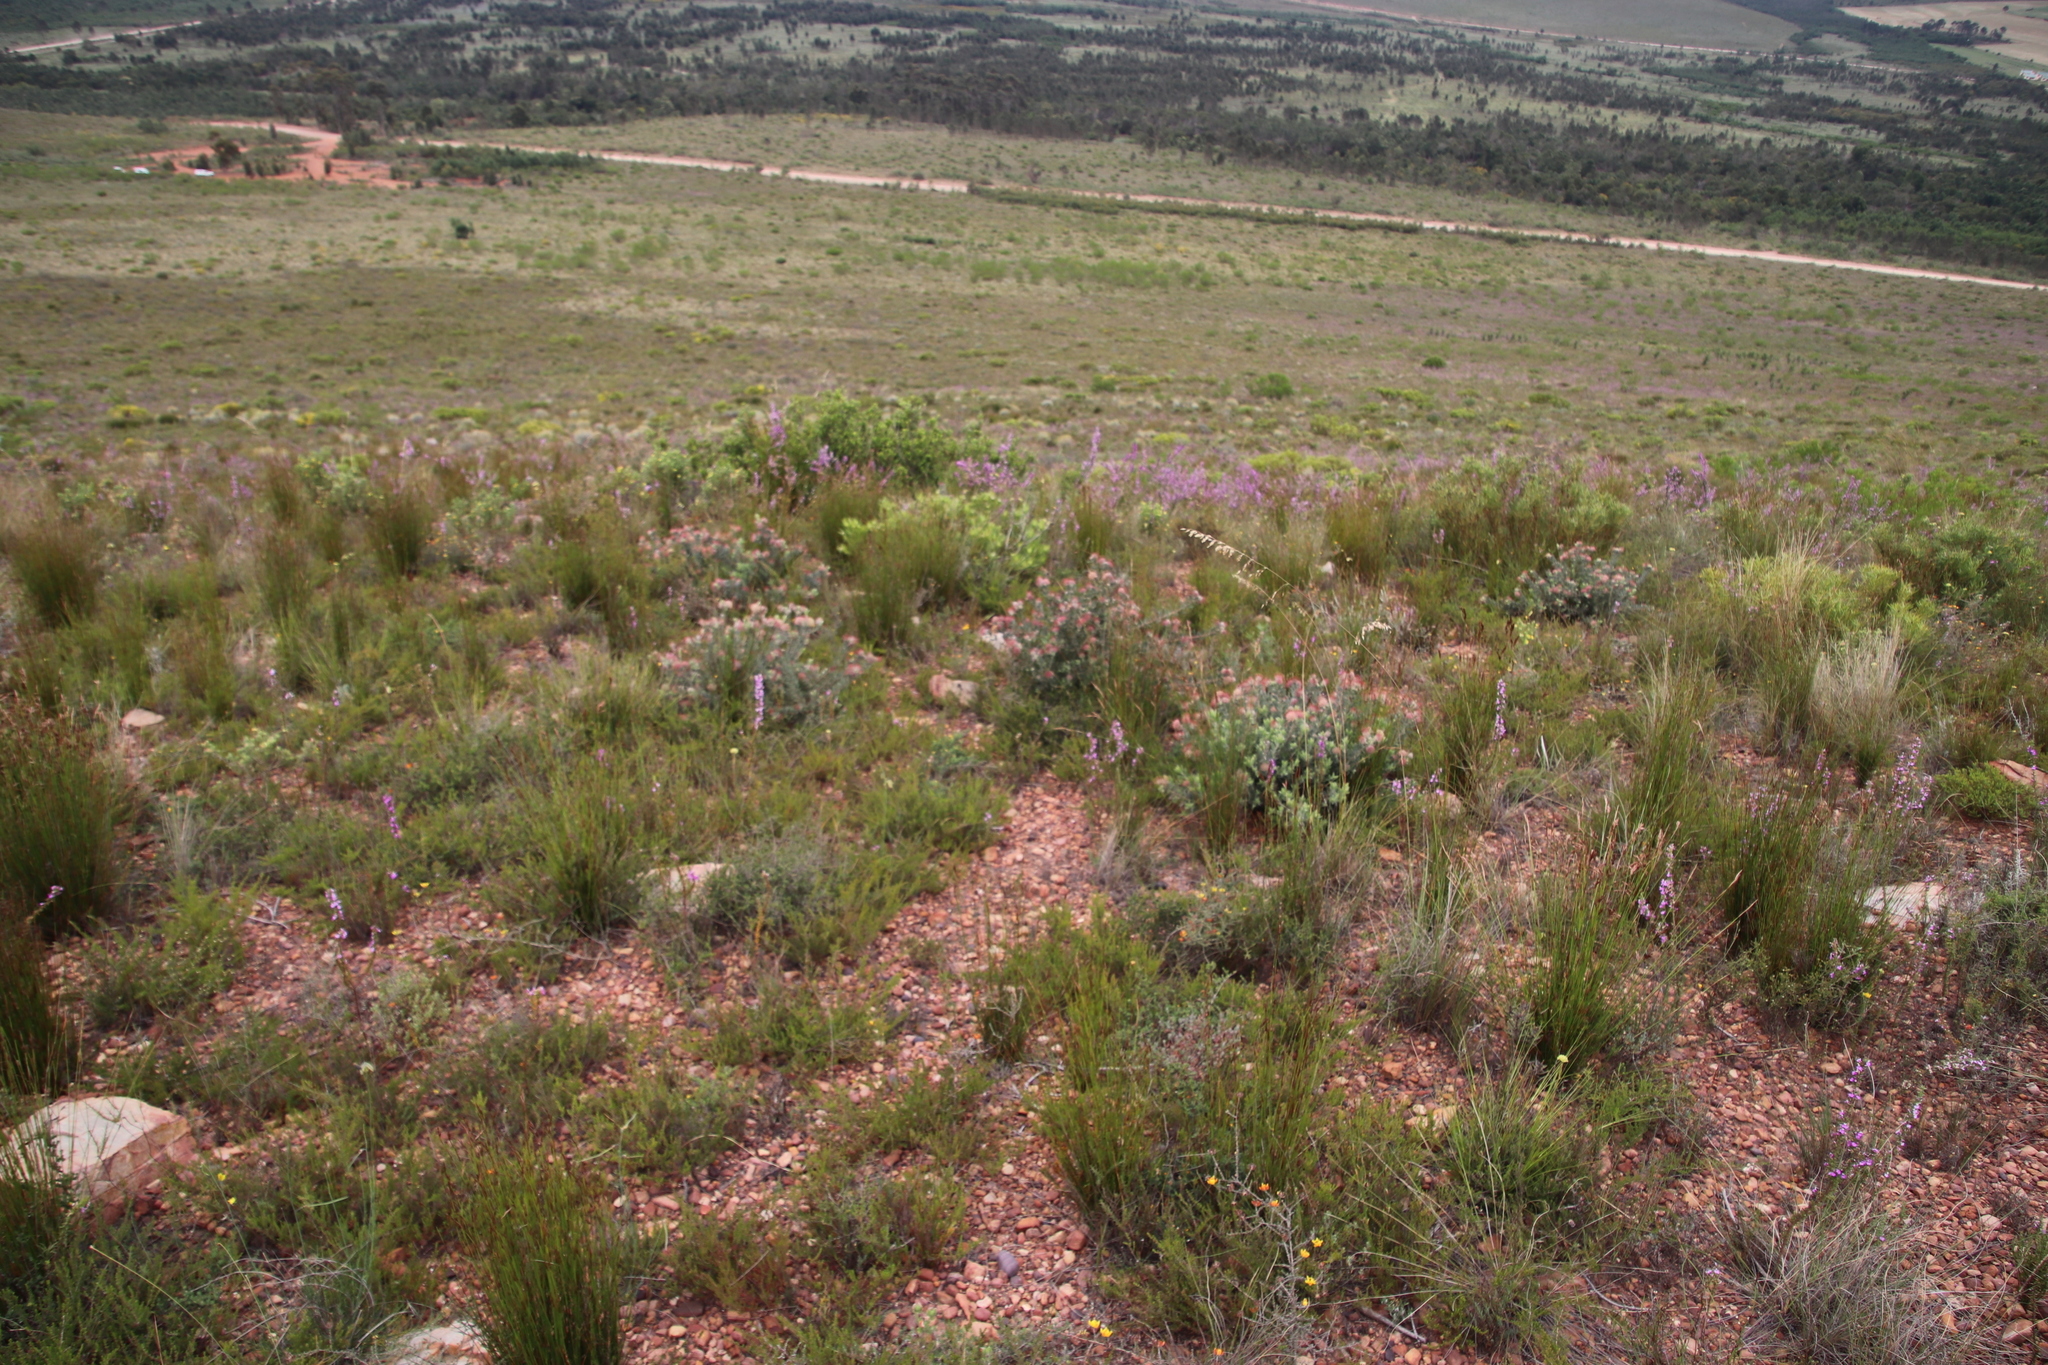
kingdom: Plantae
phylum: Tracheophyta
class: Magnoliopsida
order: Proteales
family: Proteaceae
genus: Leucospermum
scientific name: Leucospermum calligerum
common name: Arid pincushion
